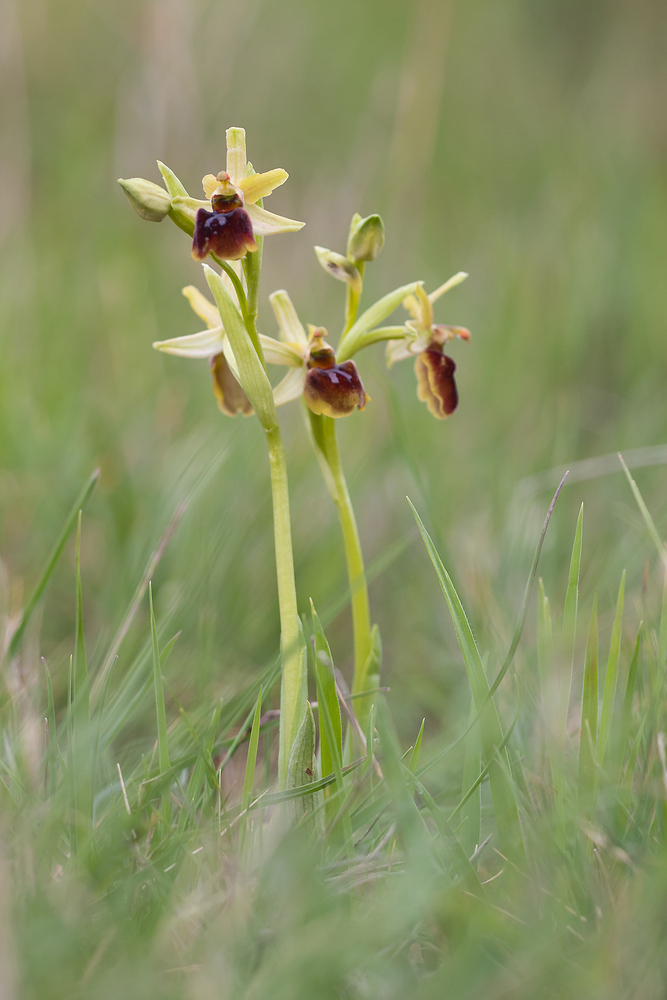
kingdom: Plantae
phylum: Tracheophyta
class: Liliopsida
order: Asparagales
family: Orchidaceae
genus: Ophrys
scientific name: Ophrys sphegodes
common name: Early spider-orchid
